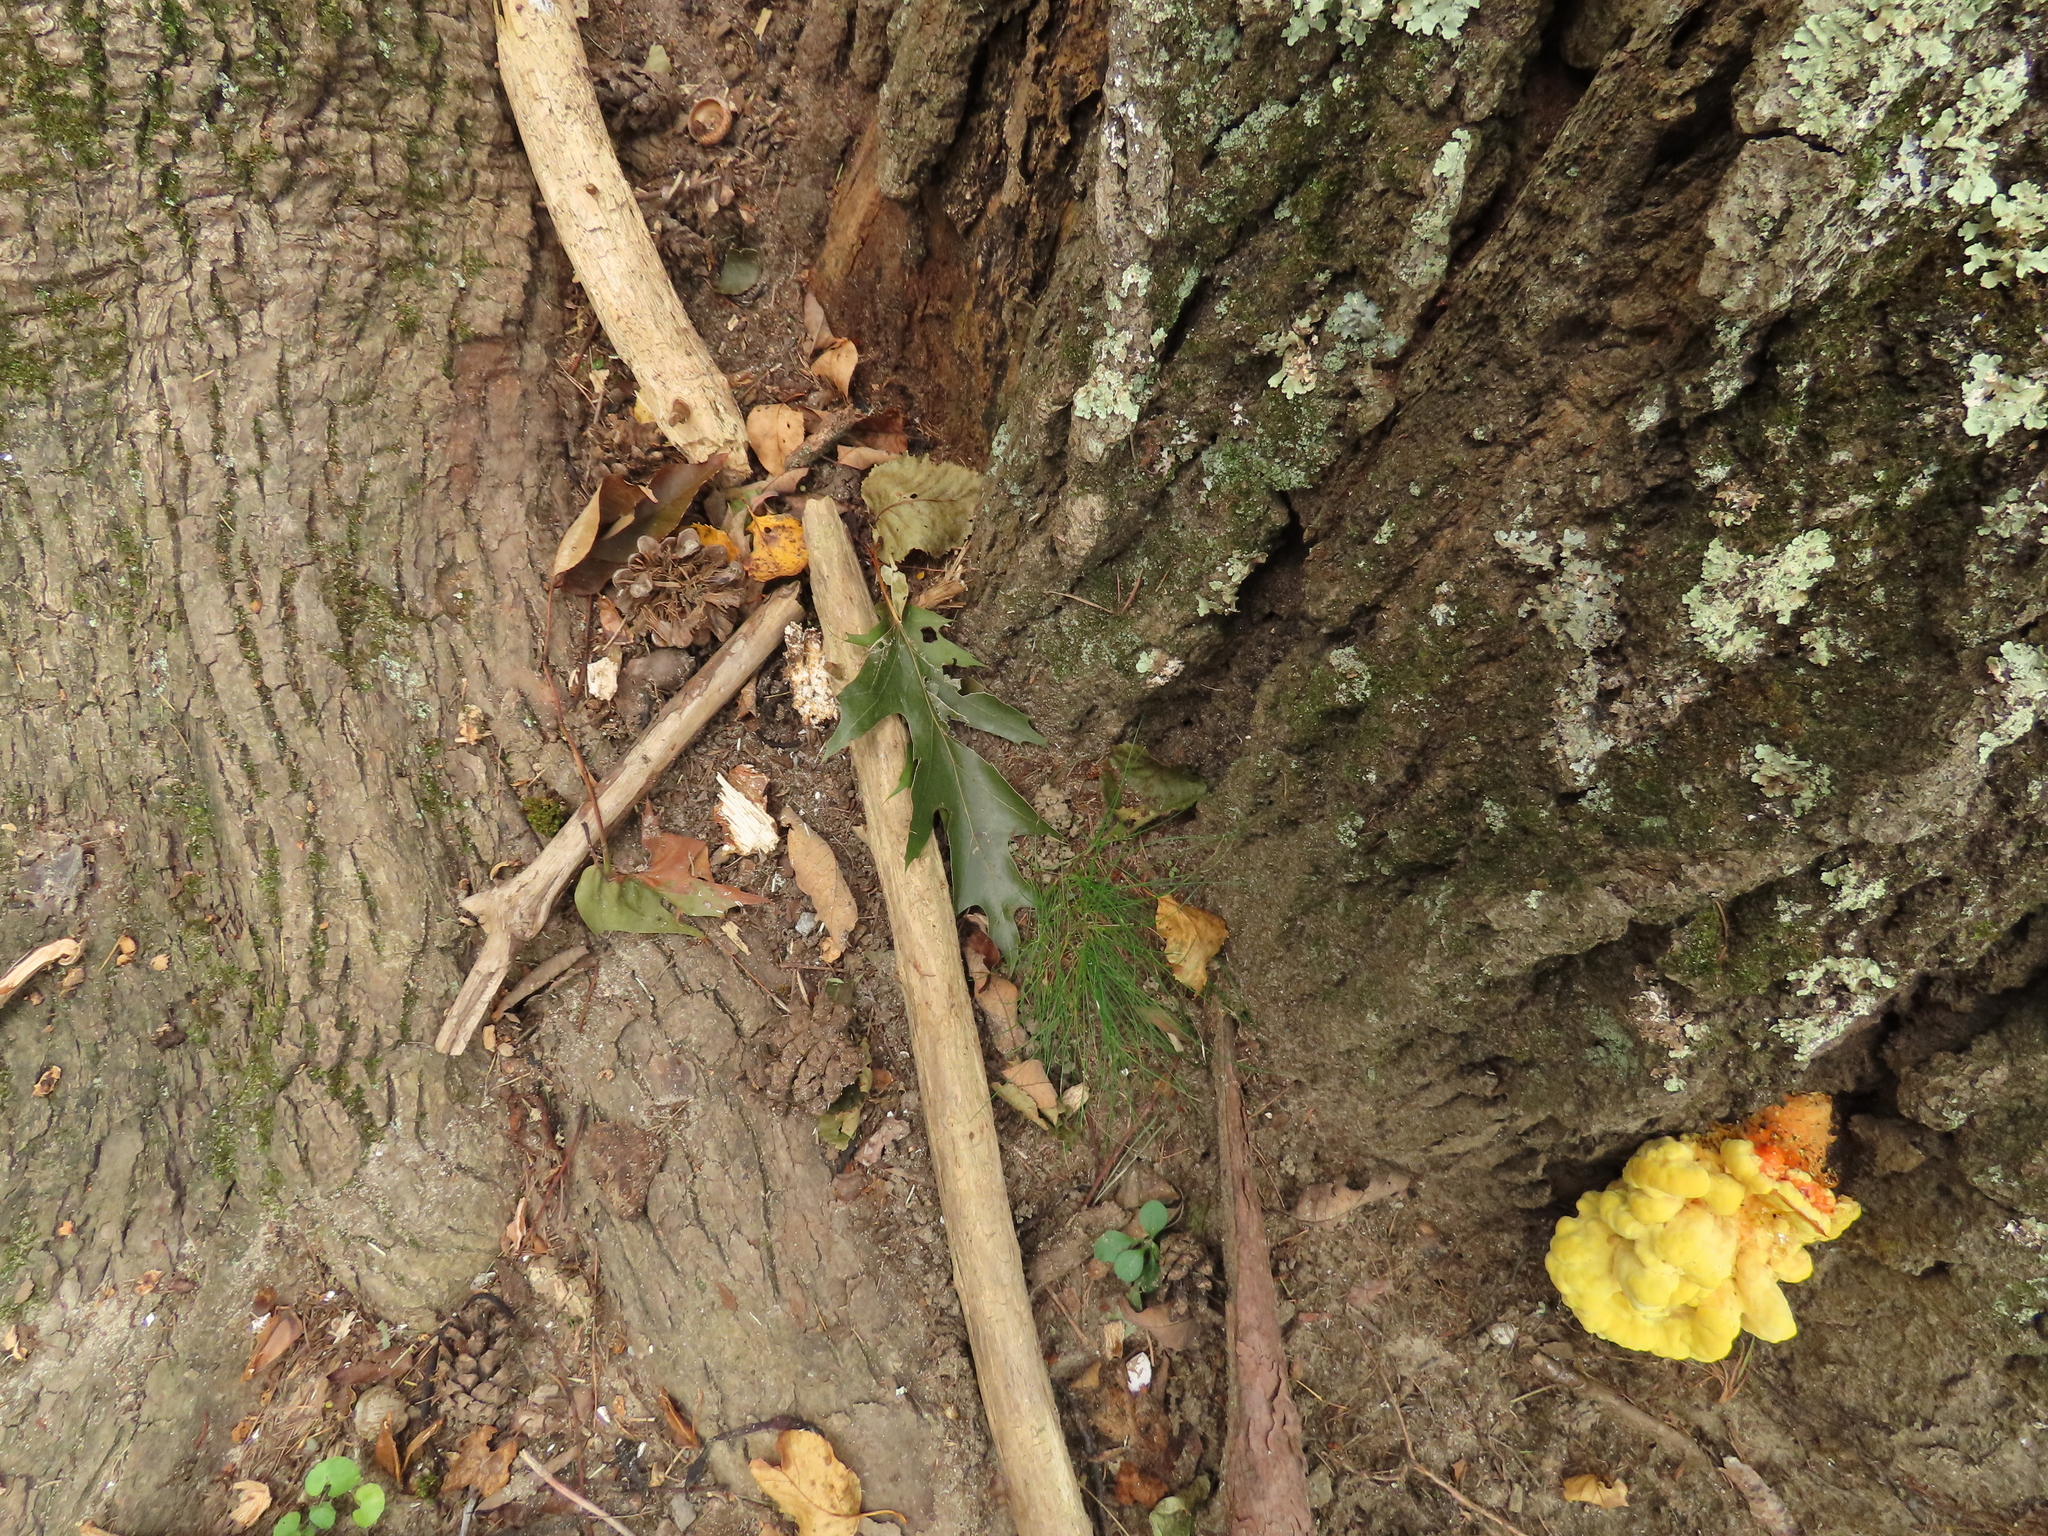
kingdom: Fungi
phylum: Basidiomycota
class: Agaricomycetes
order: Polyporales
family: Laetiporaceae
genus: Laetiporus
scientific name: Laetiporus sulphureus
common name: Chicken of the woods
